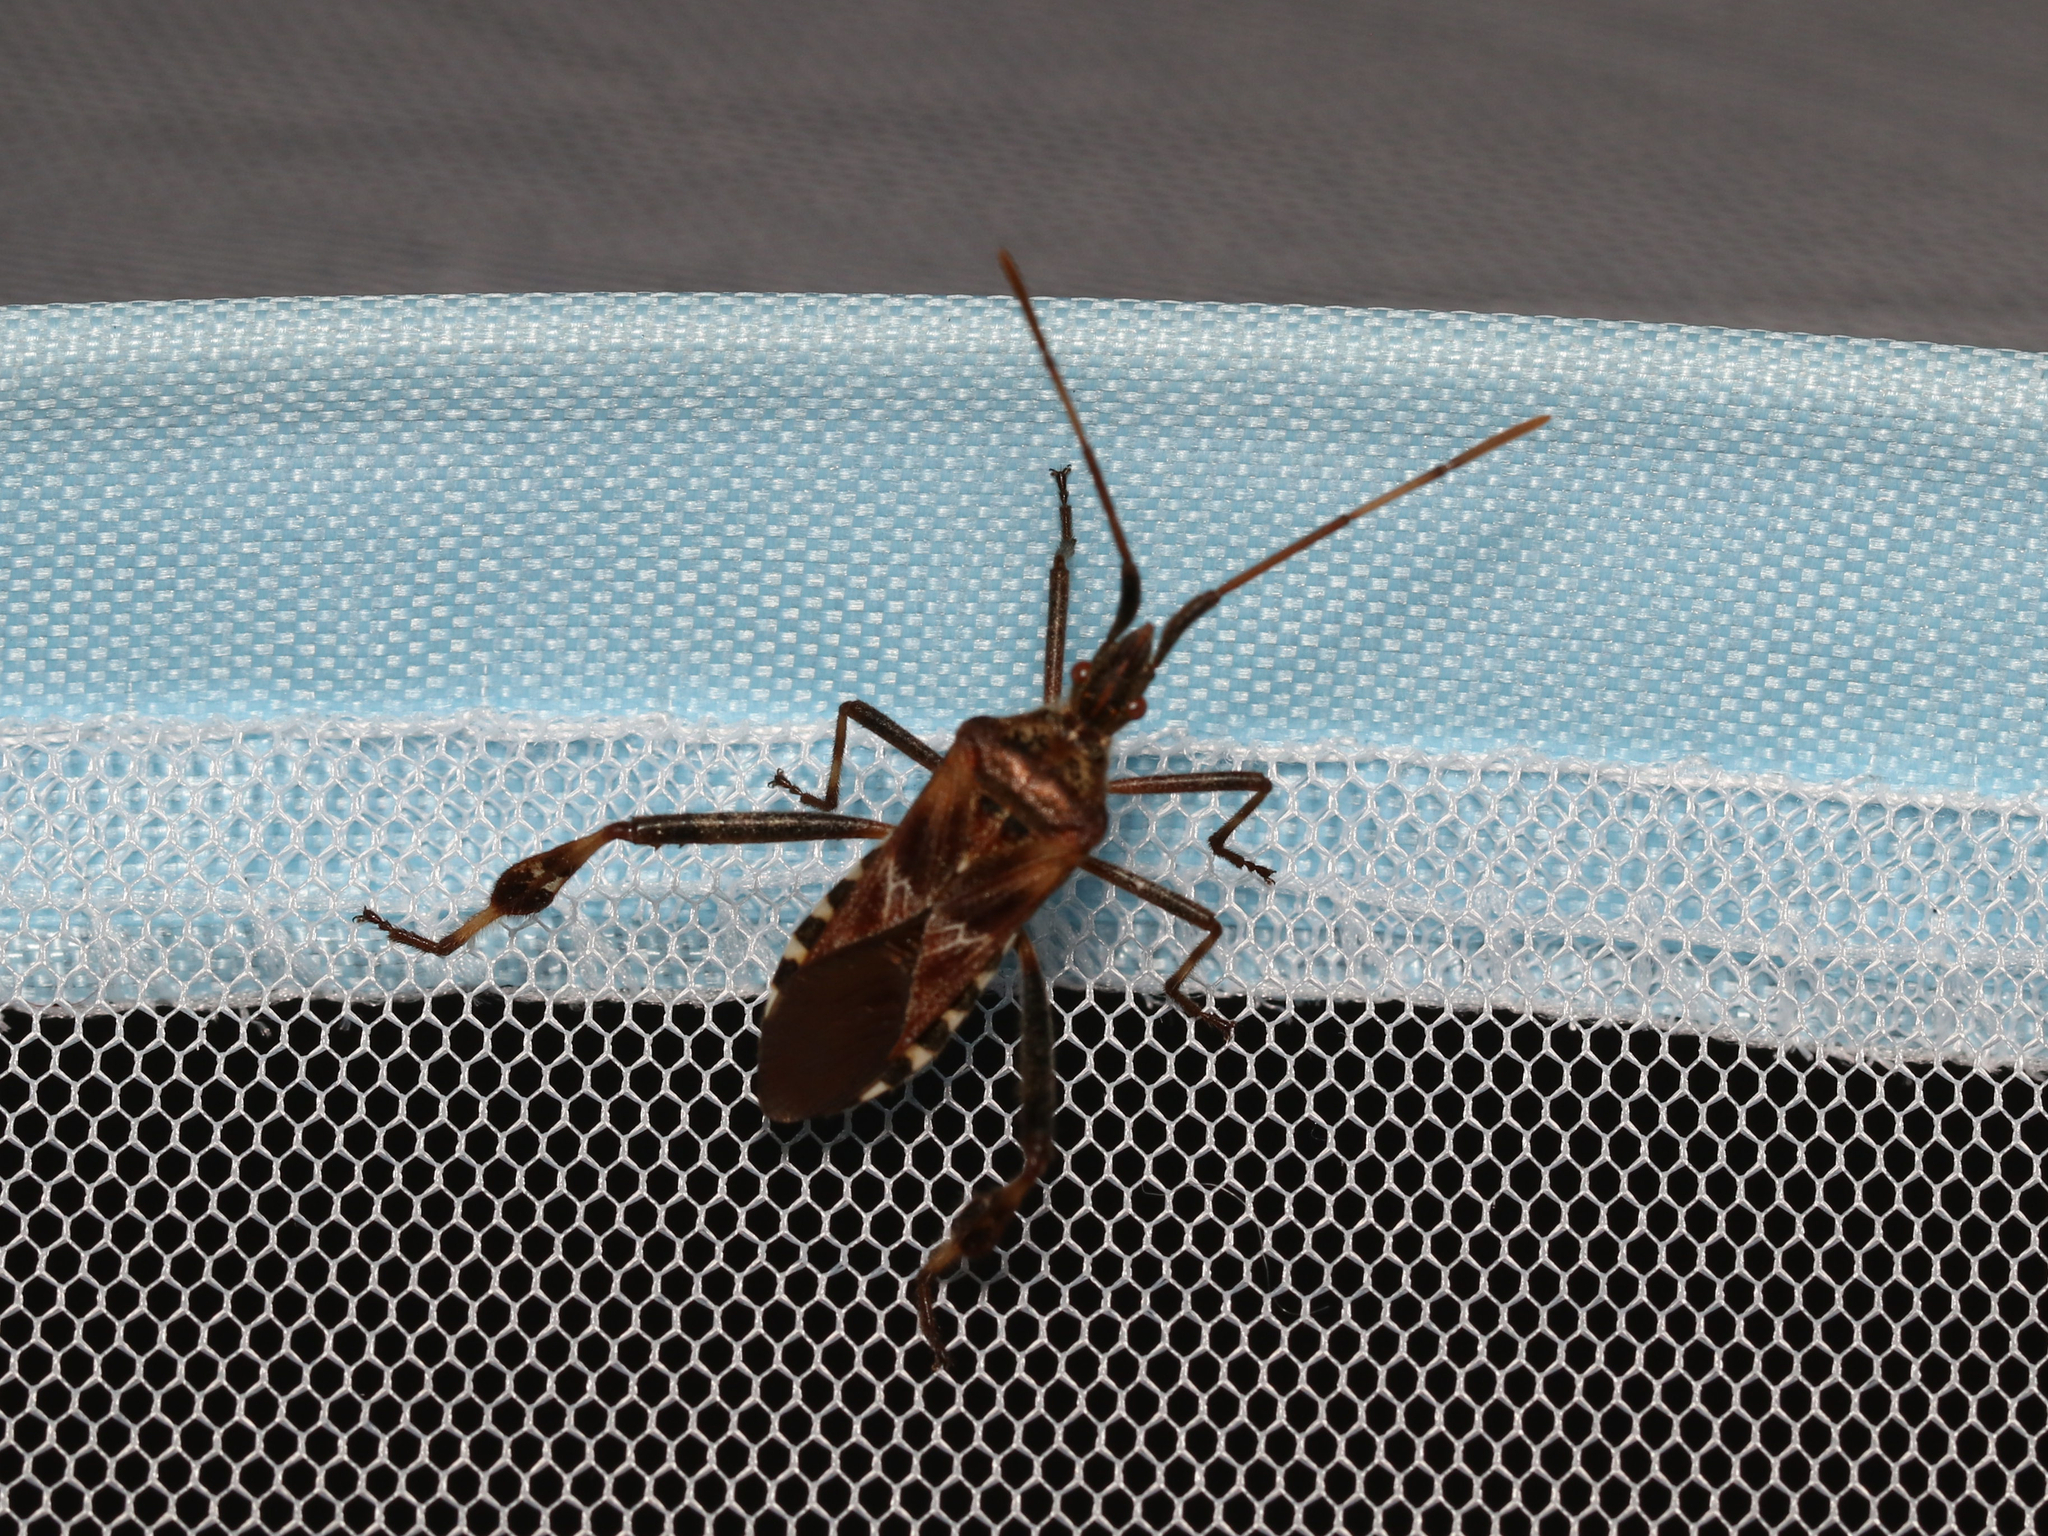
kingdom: Animalia
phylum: Arthropoda
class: Insecta
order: Hemiptera
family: Coreidae
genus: Leptoglossus
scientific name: Leptoglossus occidentalis
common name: Western conifer-seed bug
